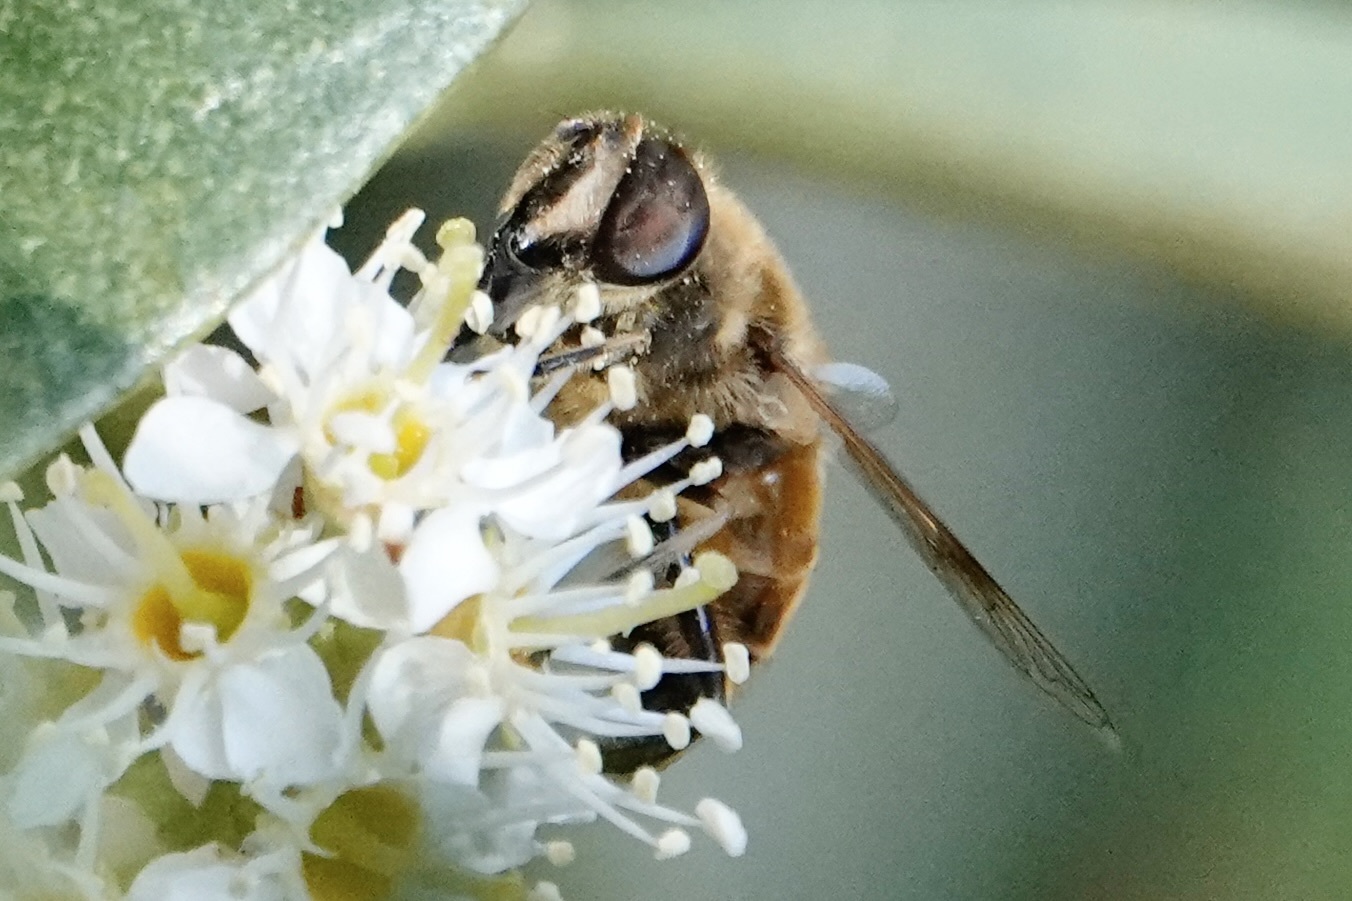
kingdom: Animalia
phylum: Arthropoda
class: Insecta
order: Diptera
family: Syrphidae
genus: Eristalis
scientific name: Eristalis tenax
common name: Drone fly
